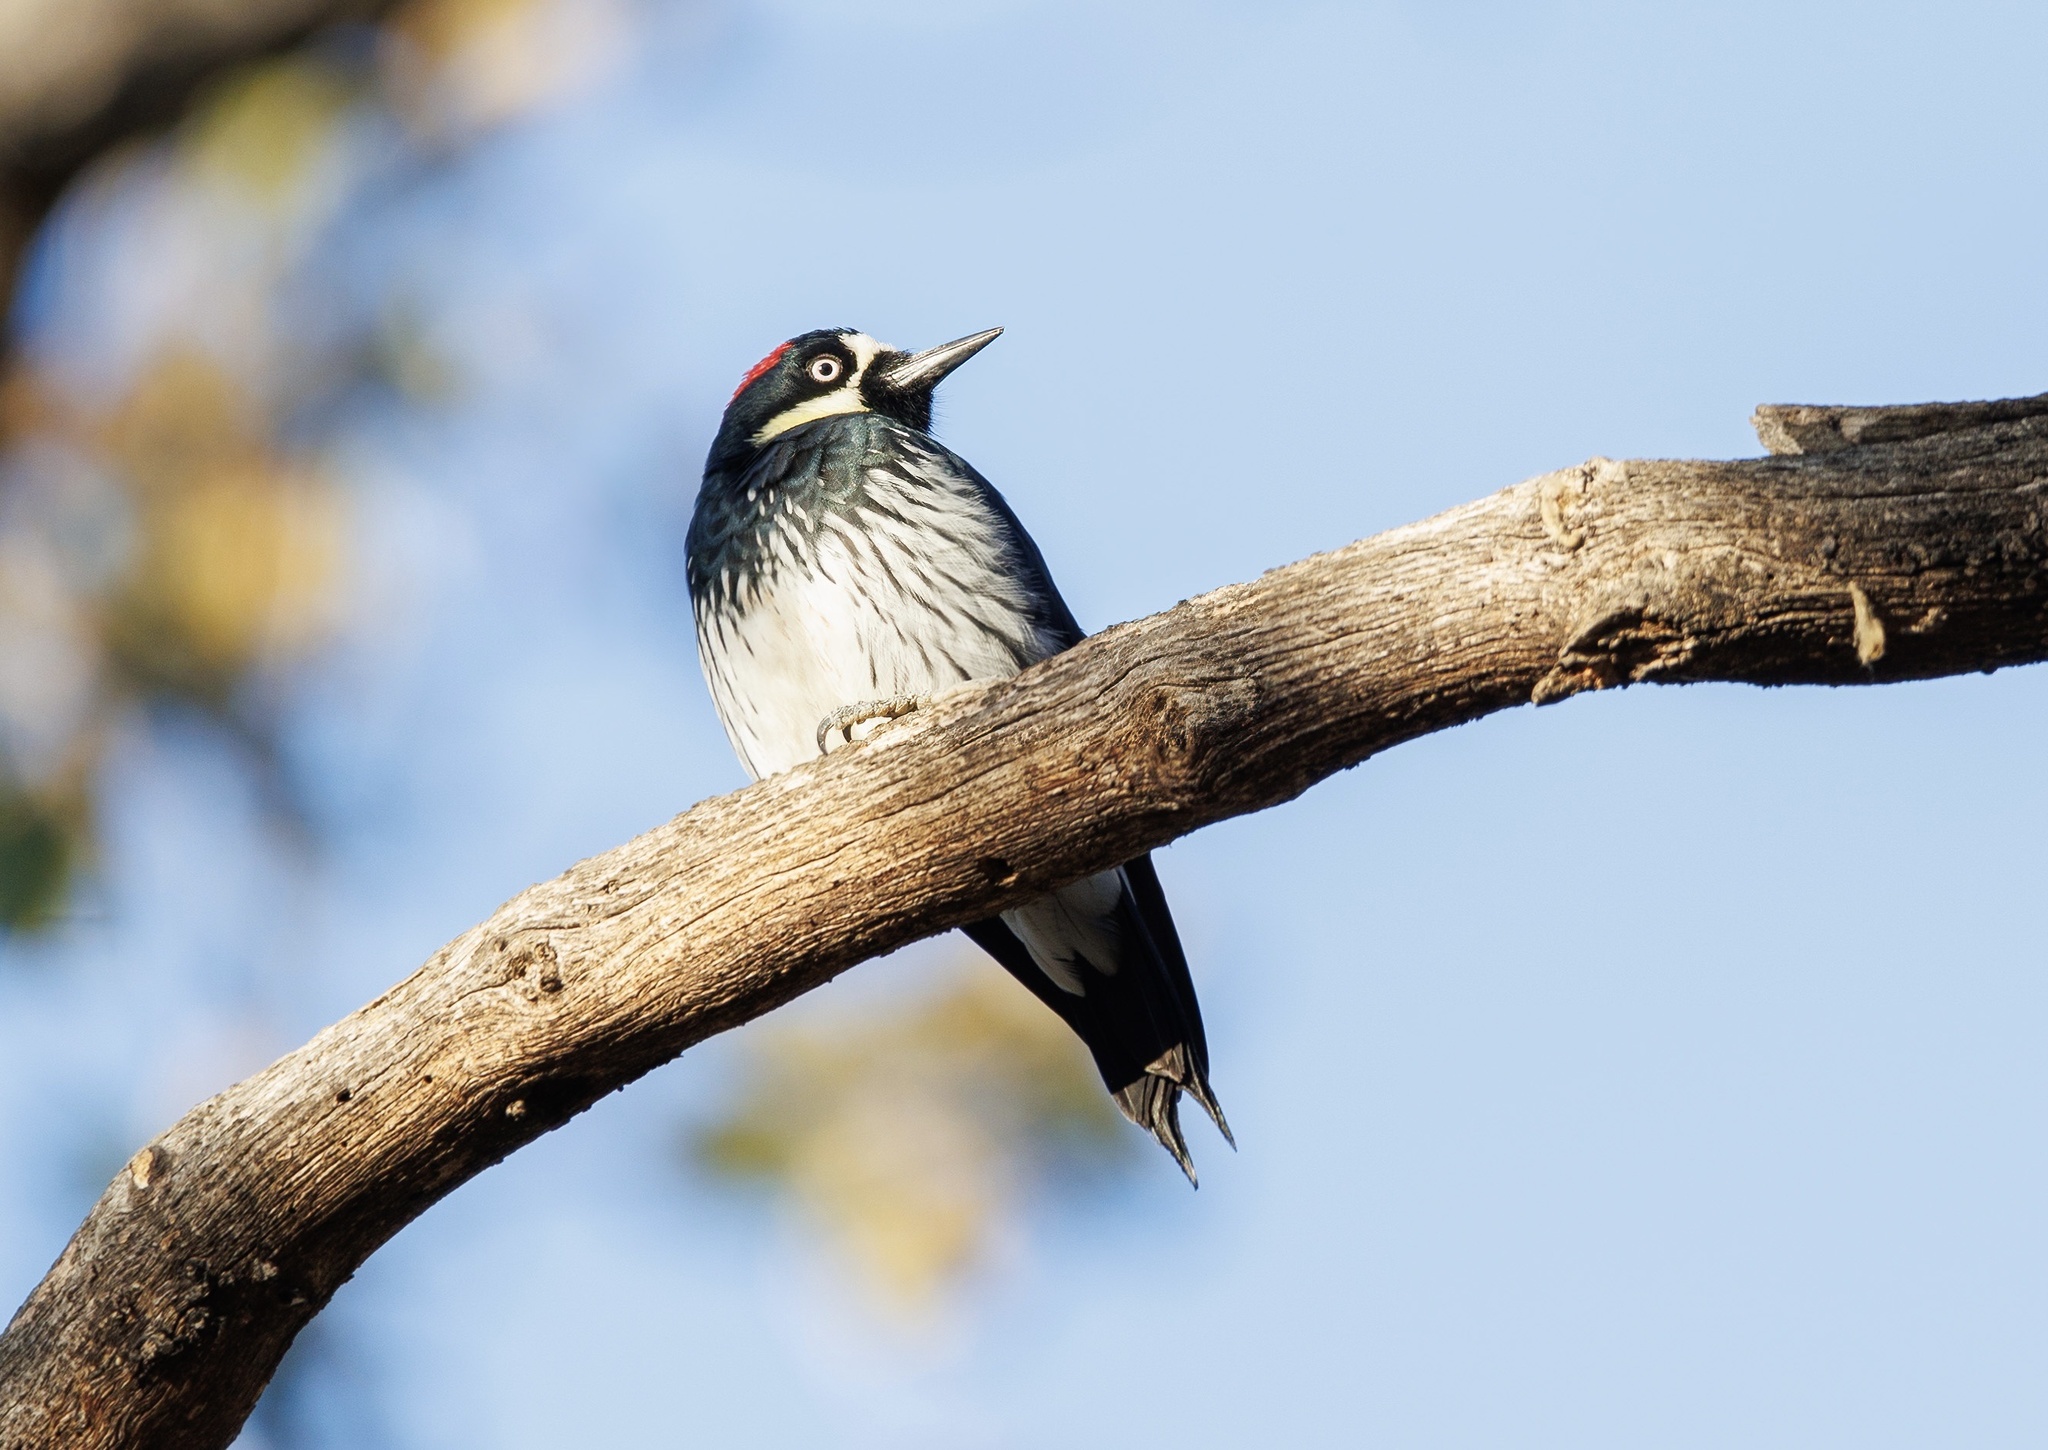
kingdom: Animalia
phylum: Chordata
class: Aves
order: Piciformes
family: Picidae
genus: Melanerpes
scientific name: Melanerpes formicivorus
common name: Acorn woodpecker
